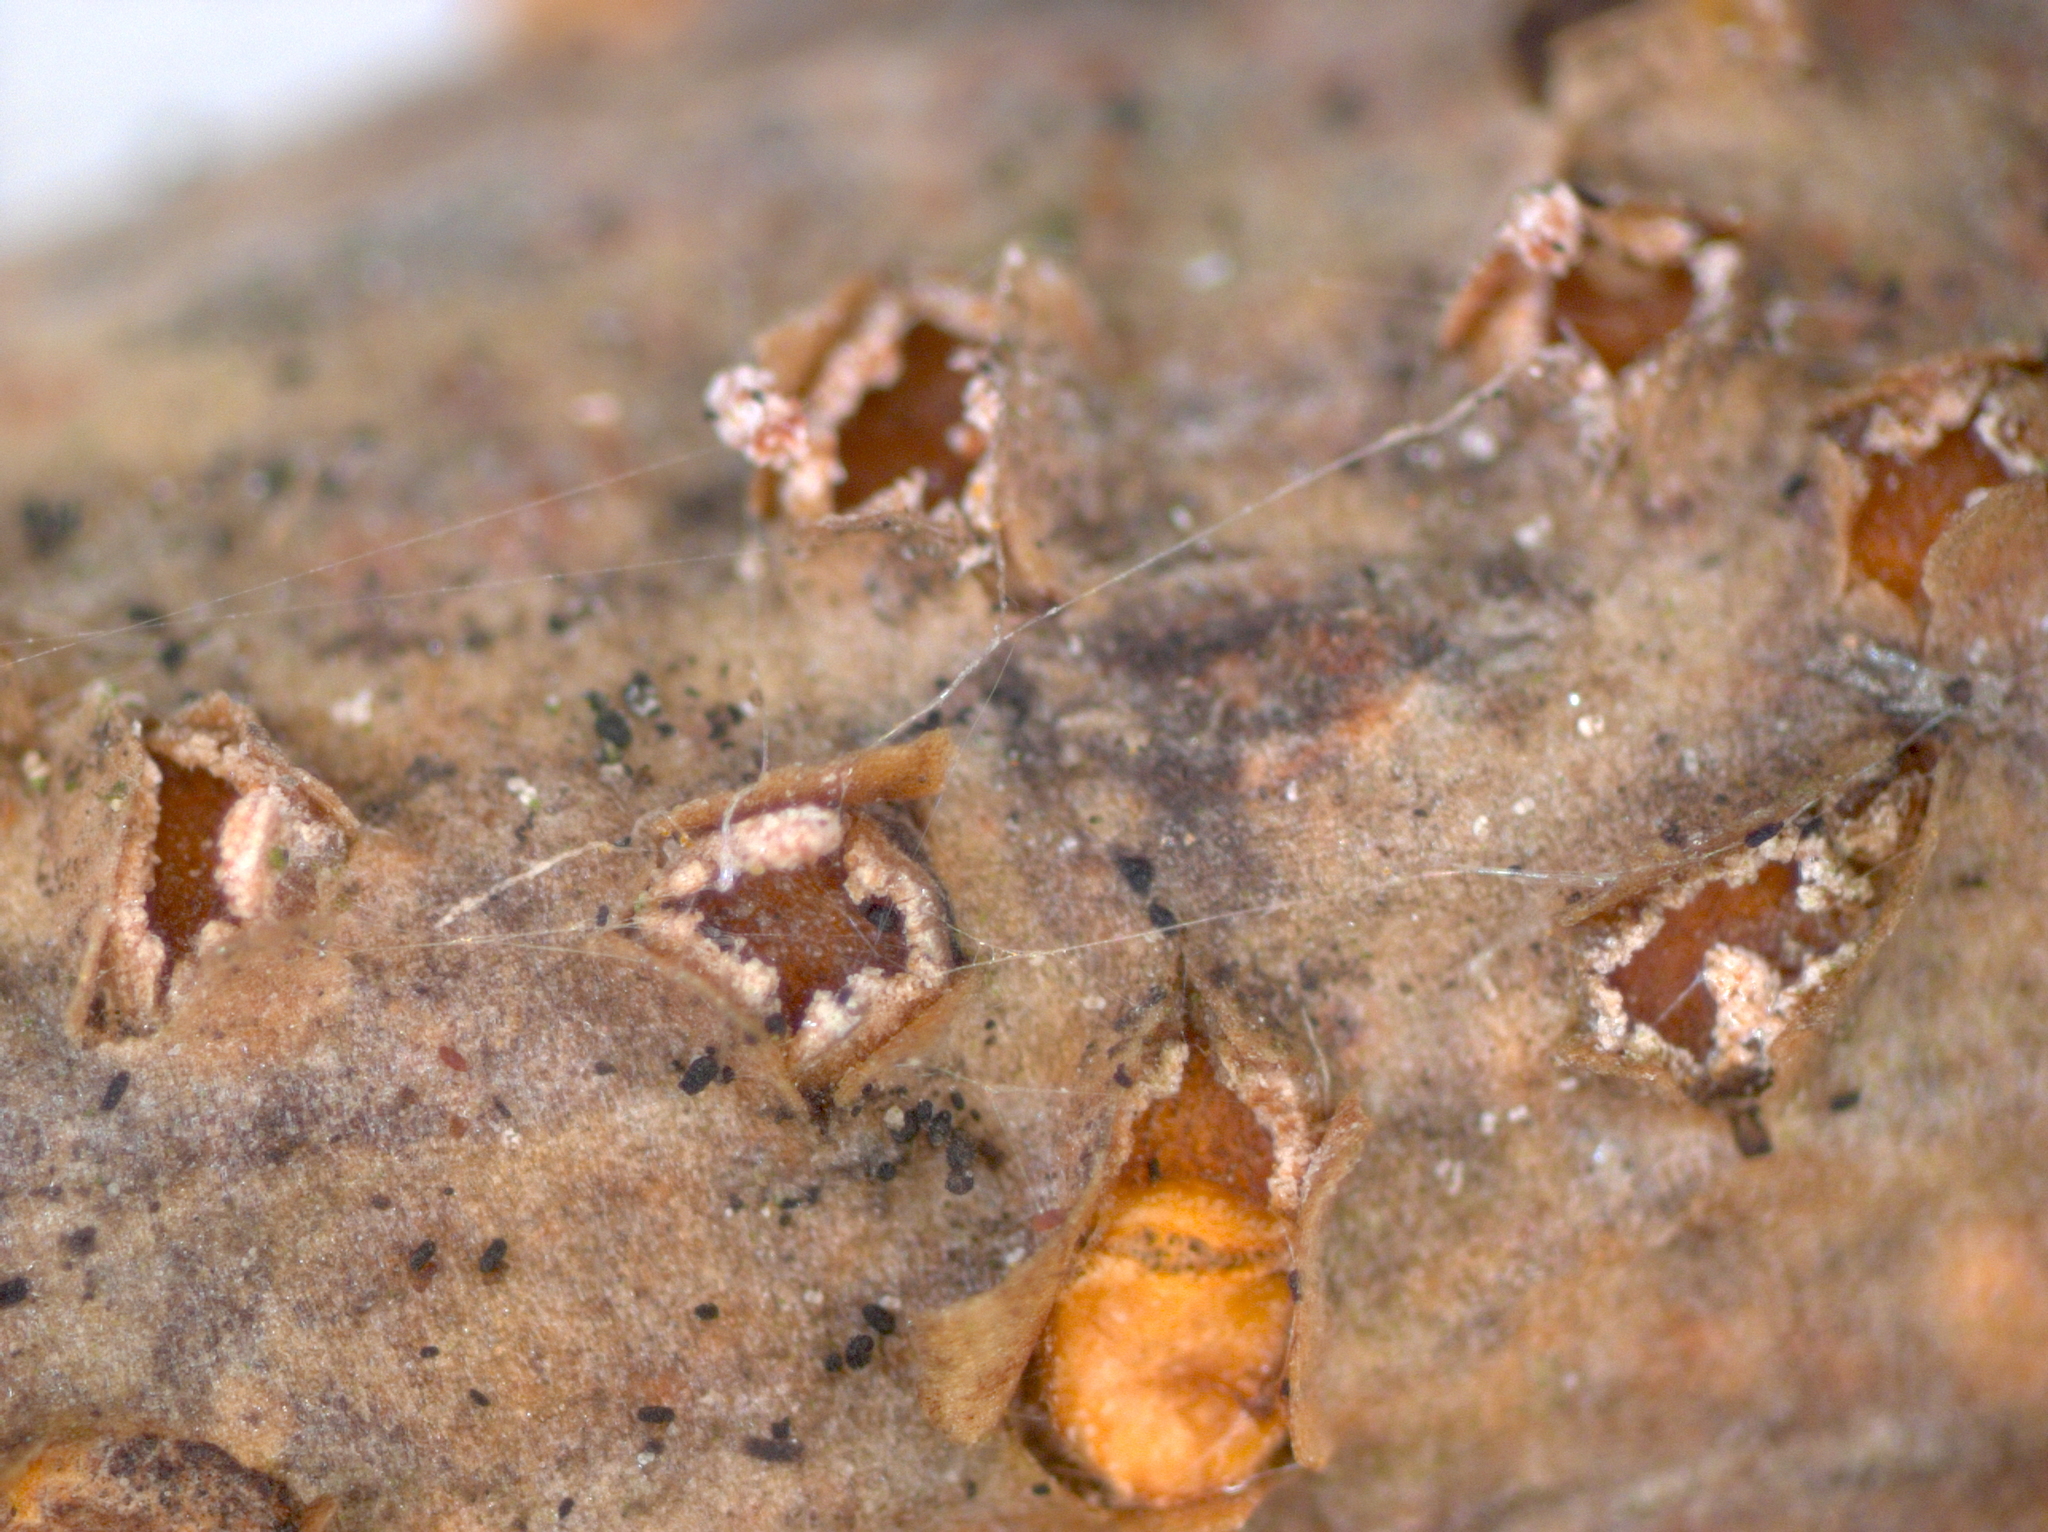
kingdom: Fungi
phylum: Ascomycota
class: Leotiomycetes
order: Helotiales
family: Dermateaceae
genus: Pezicula
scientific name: Pezicula ocellata
